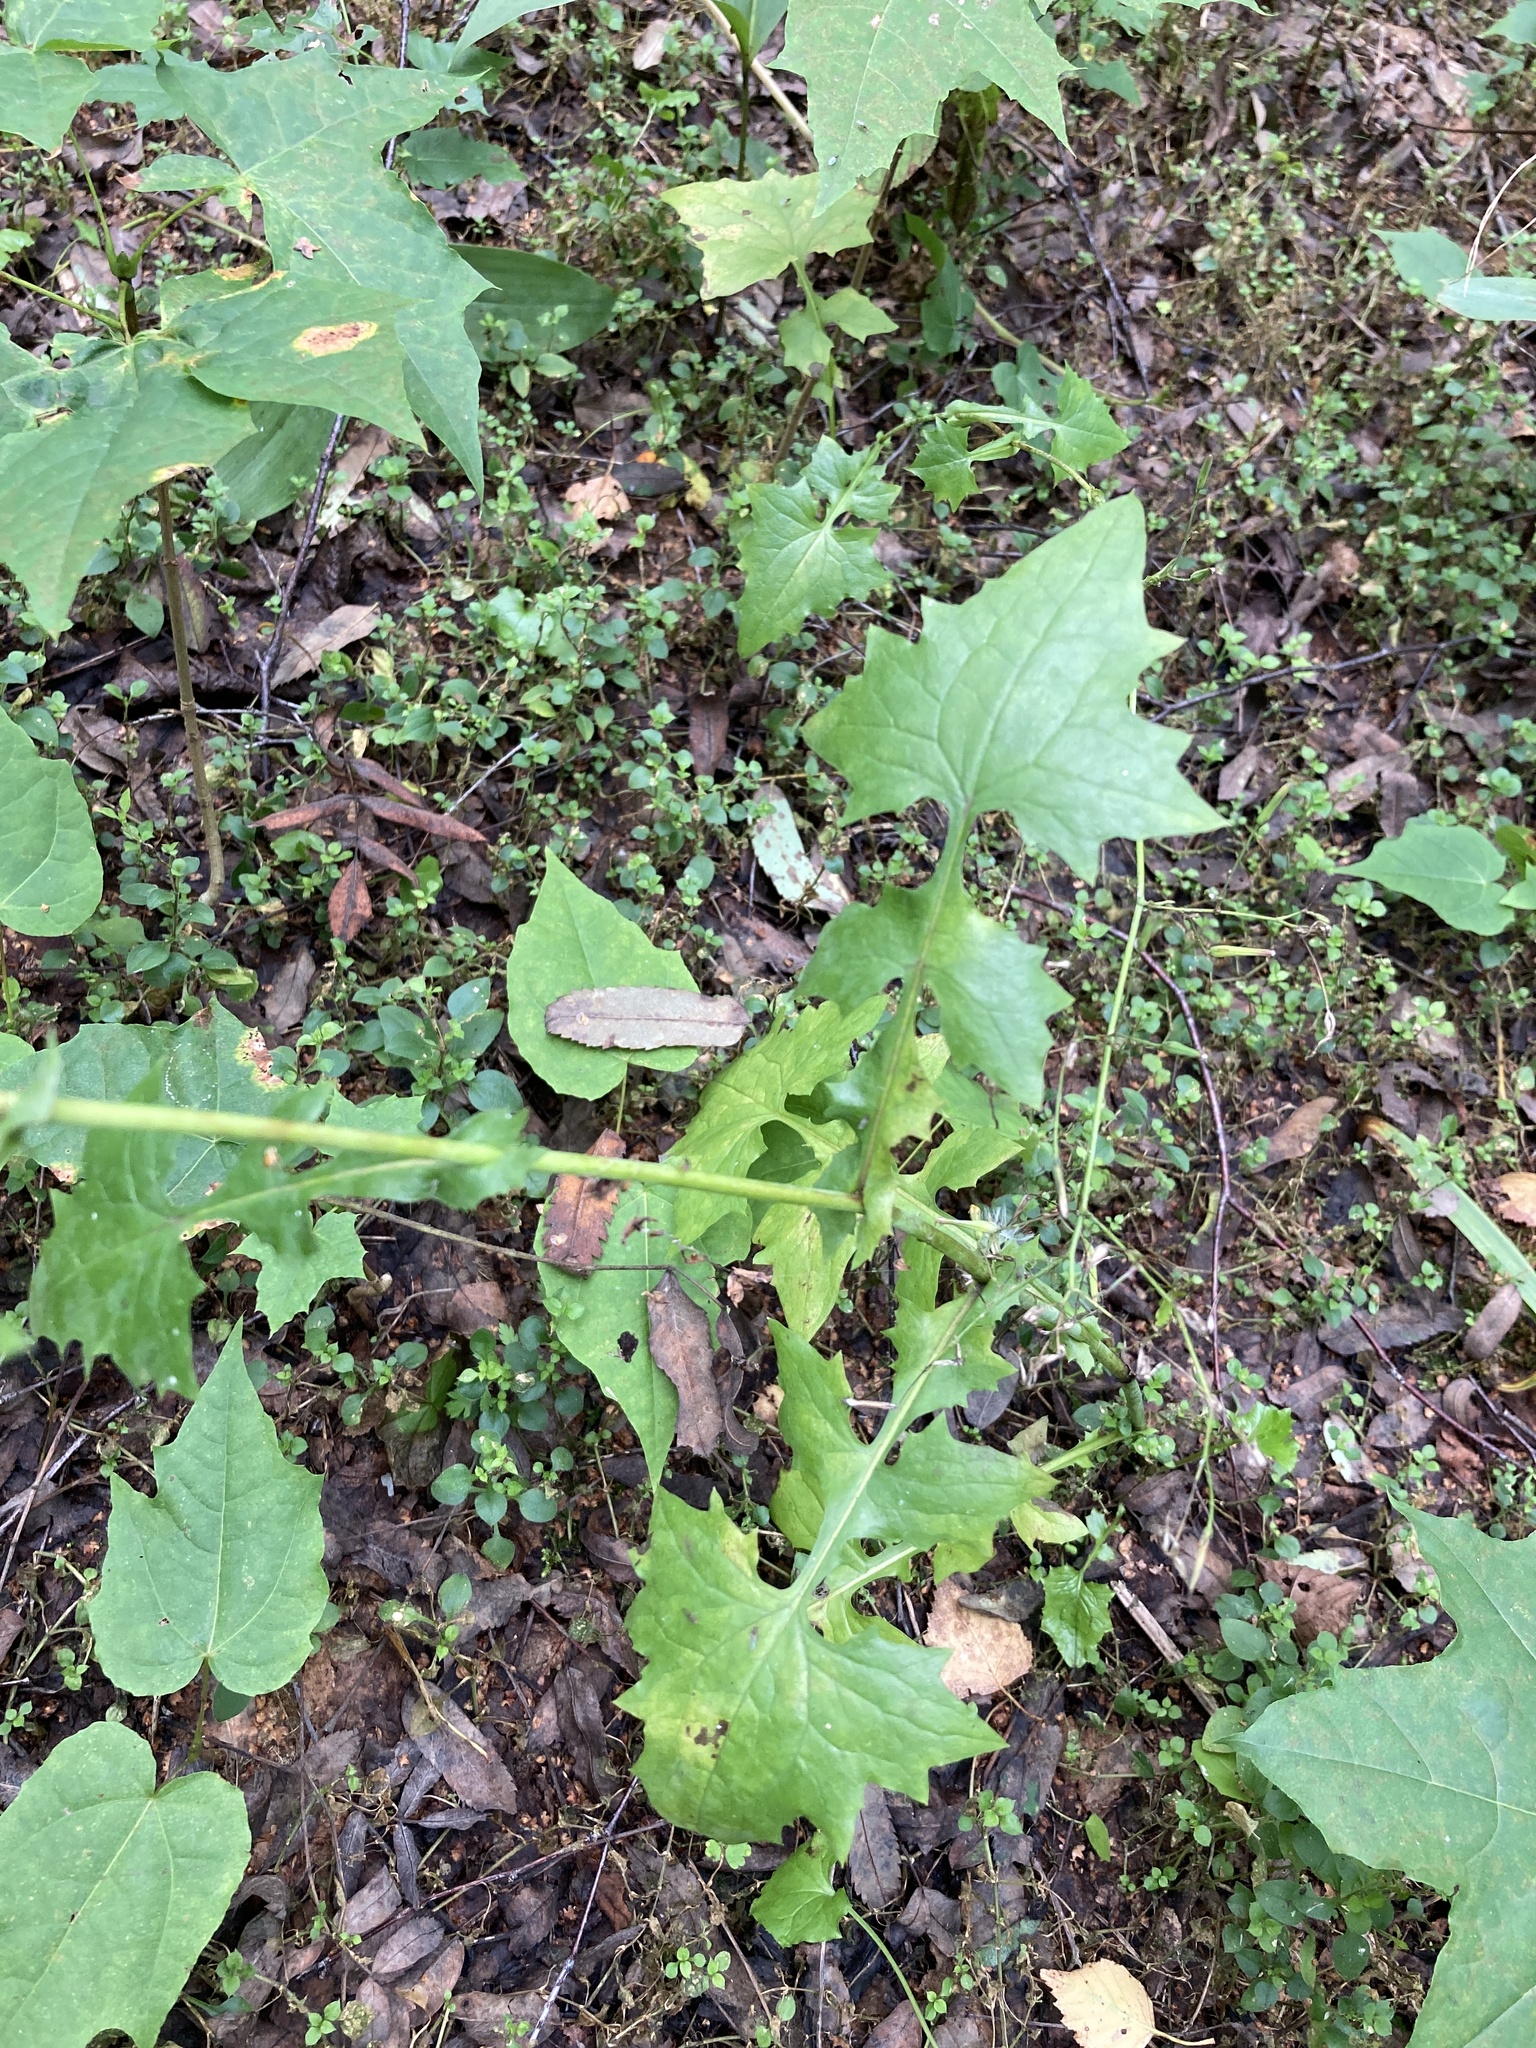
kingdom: Plantae
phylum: Tracheophyta
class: Magnoliopsida
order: Asterales
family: Asteraceae
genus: Mycelis
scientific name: Mycelis muralis
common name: Wall lettuce
